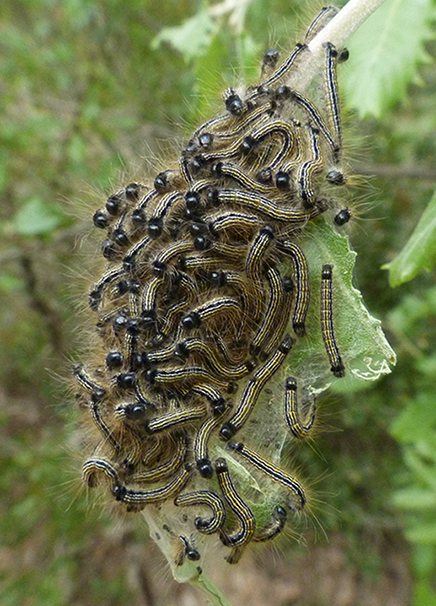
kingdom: Animalia
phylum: Arthropoda
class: Insecta
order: Lepidoptera
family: Lasiocampidae
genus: Malacosoma
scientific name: Malacosoma neustria
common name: The lackey
